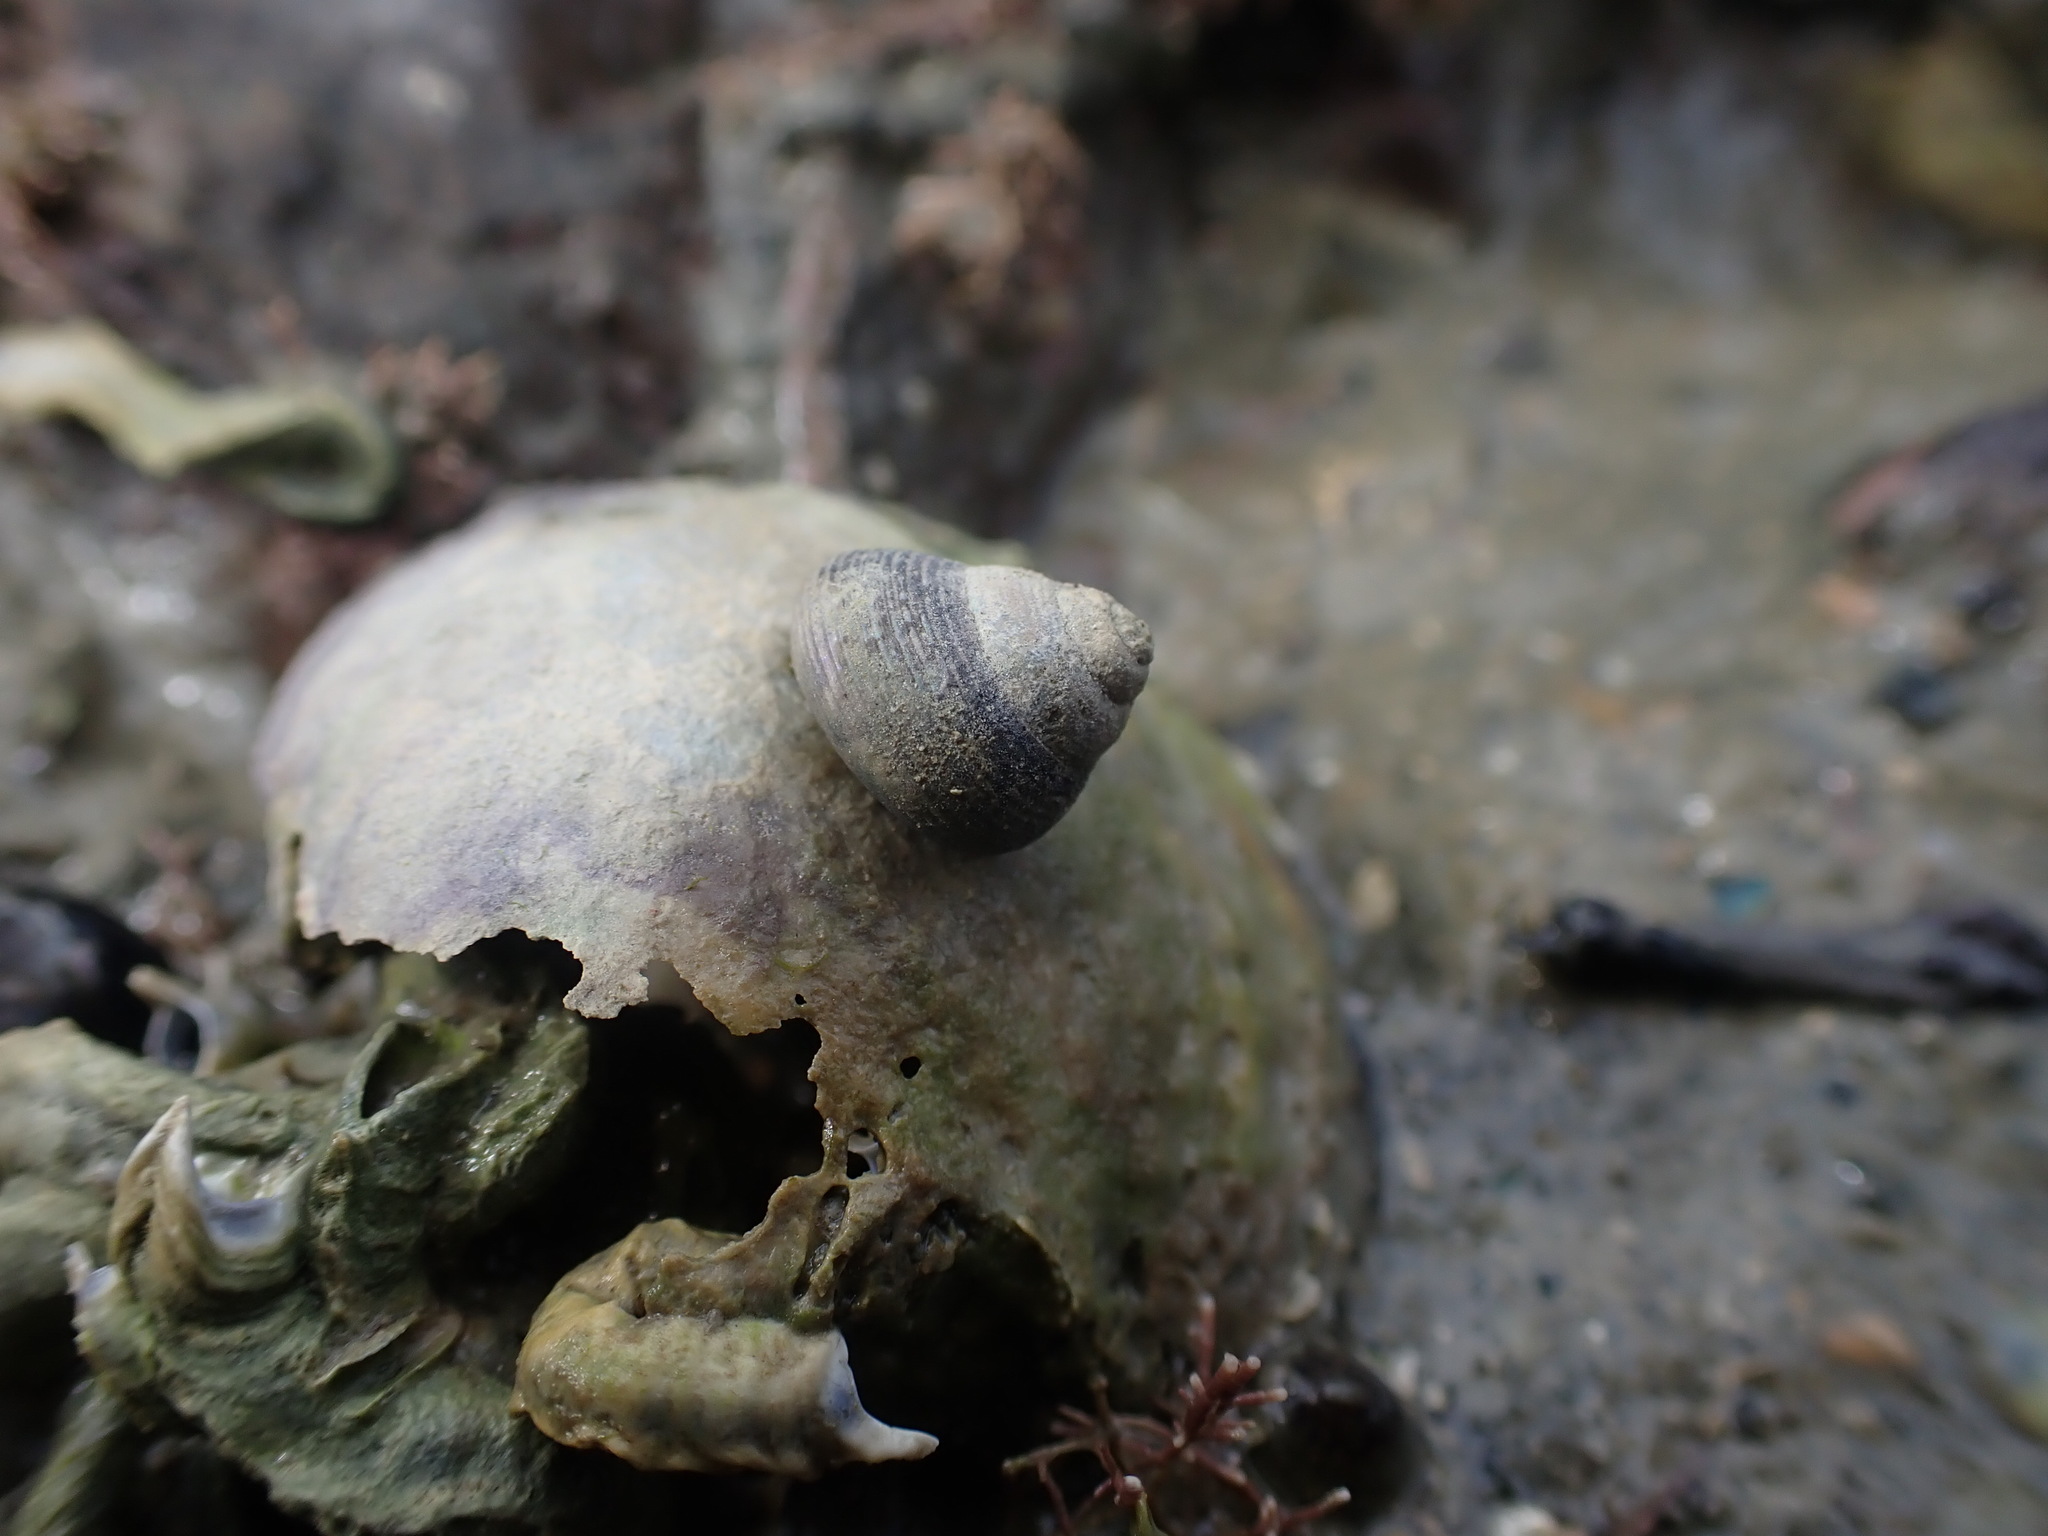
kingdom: Animalia
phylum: Mollusca
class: Gastropoda
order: Trochida
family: Trochidae
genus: Micrelenchus
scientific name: Micrelenchus huttonii
